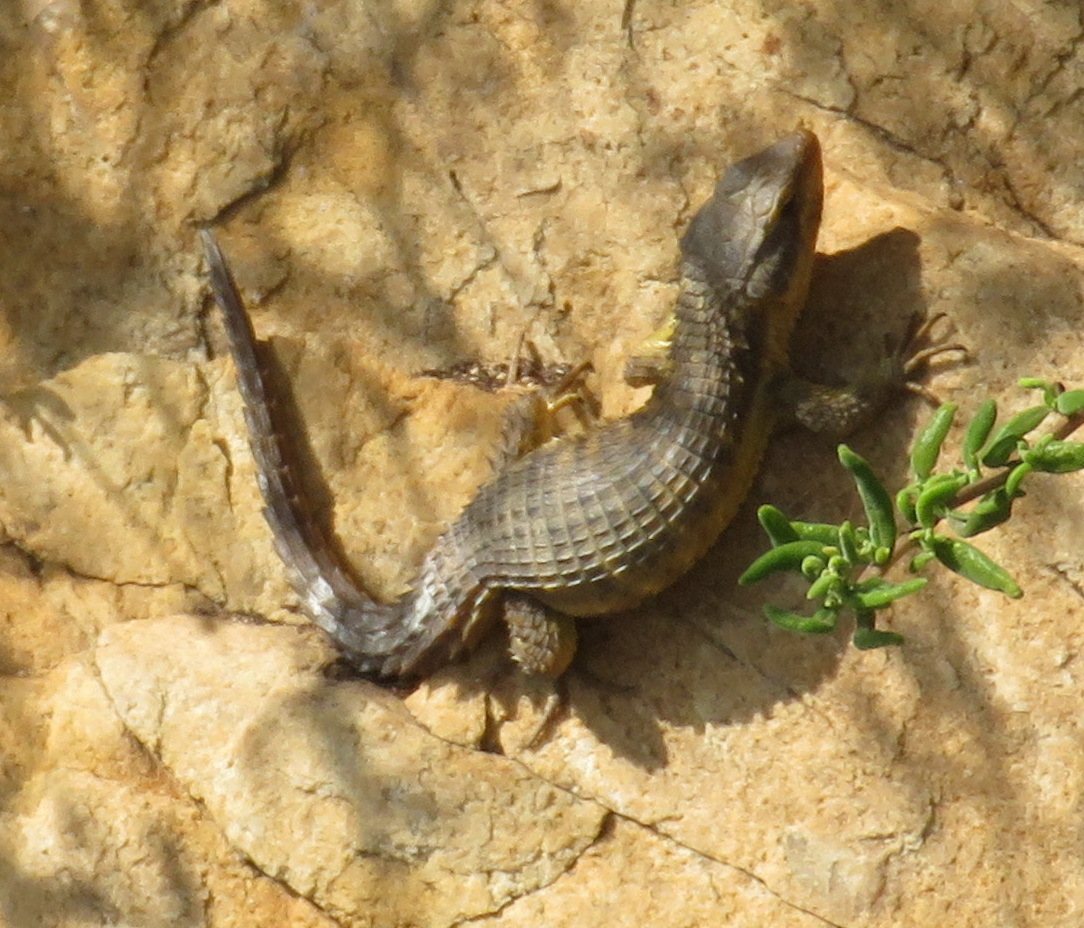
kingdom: Animalia
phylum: Chordata
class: Squamata
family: Cordylidae
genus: Cordylus
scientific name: Cordylus cordylus
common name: Cape girdled lizard
